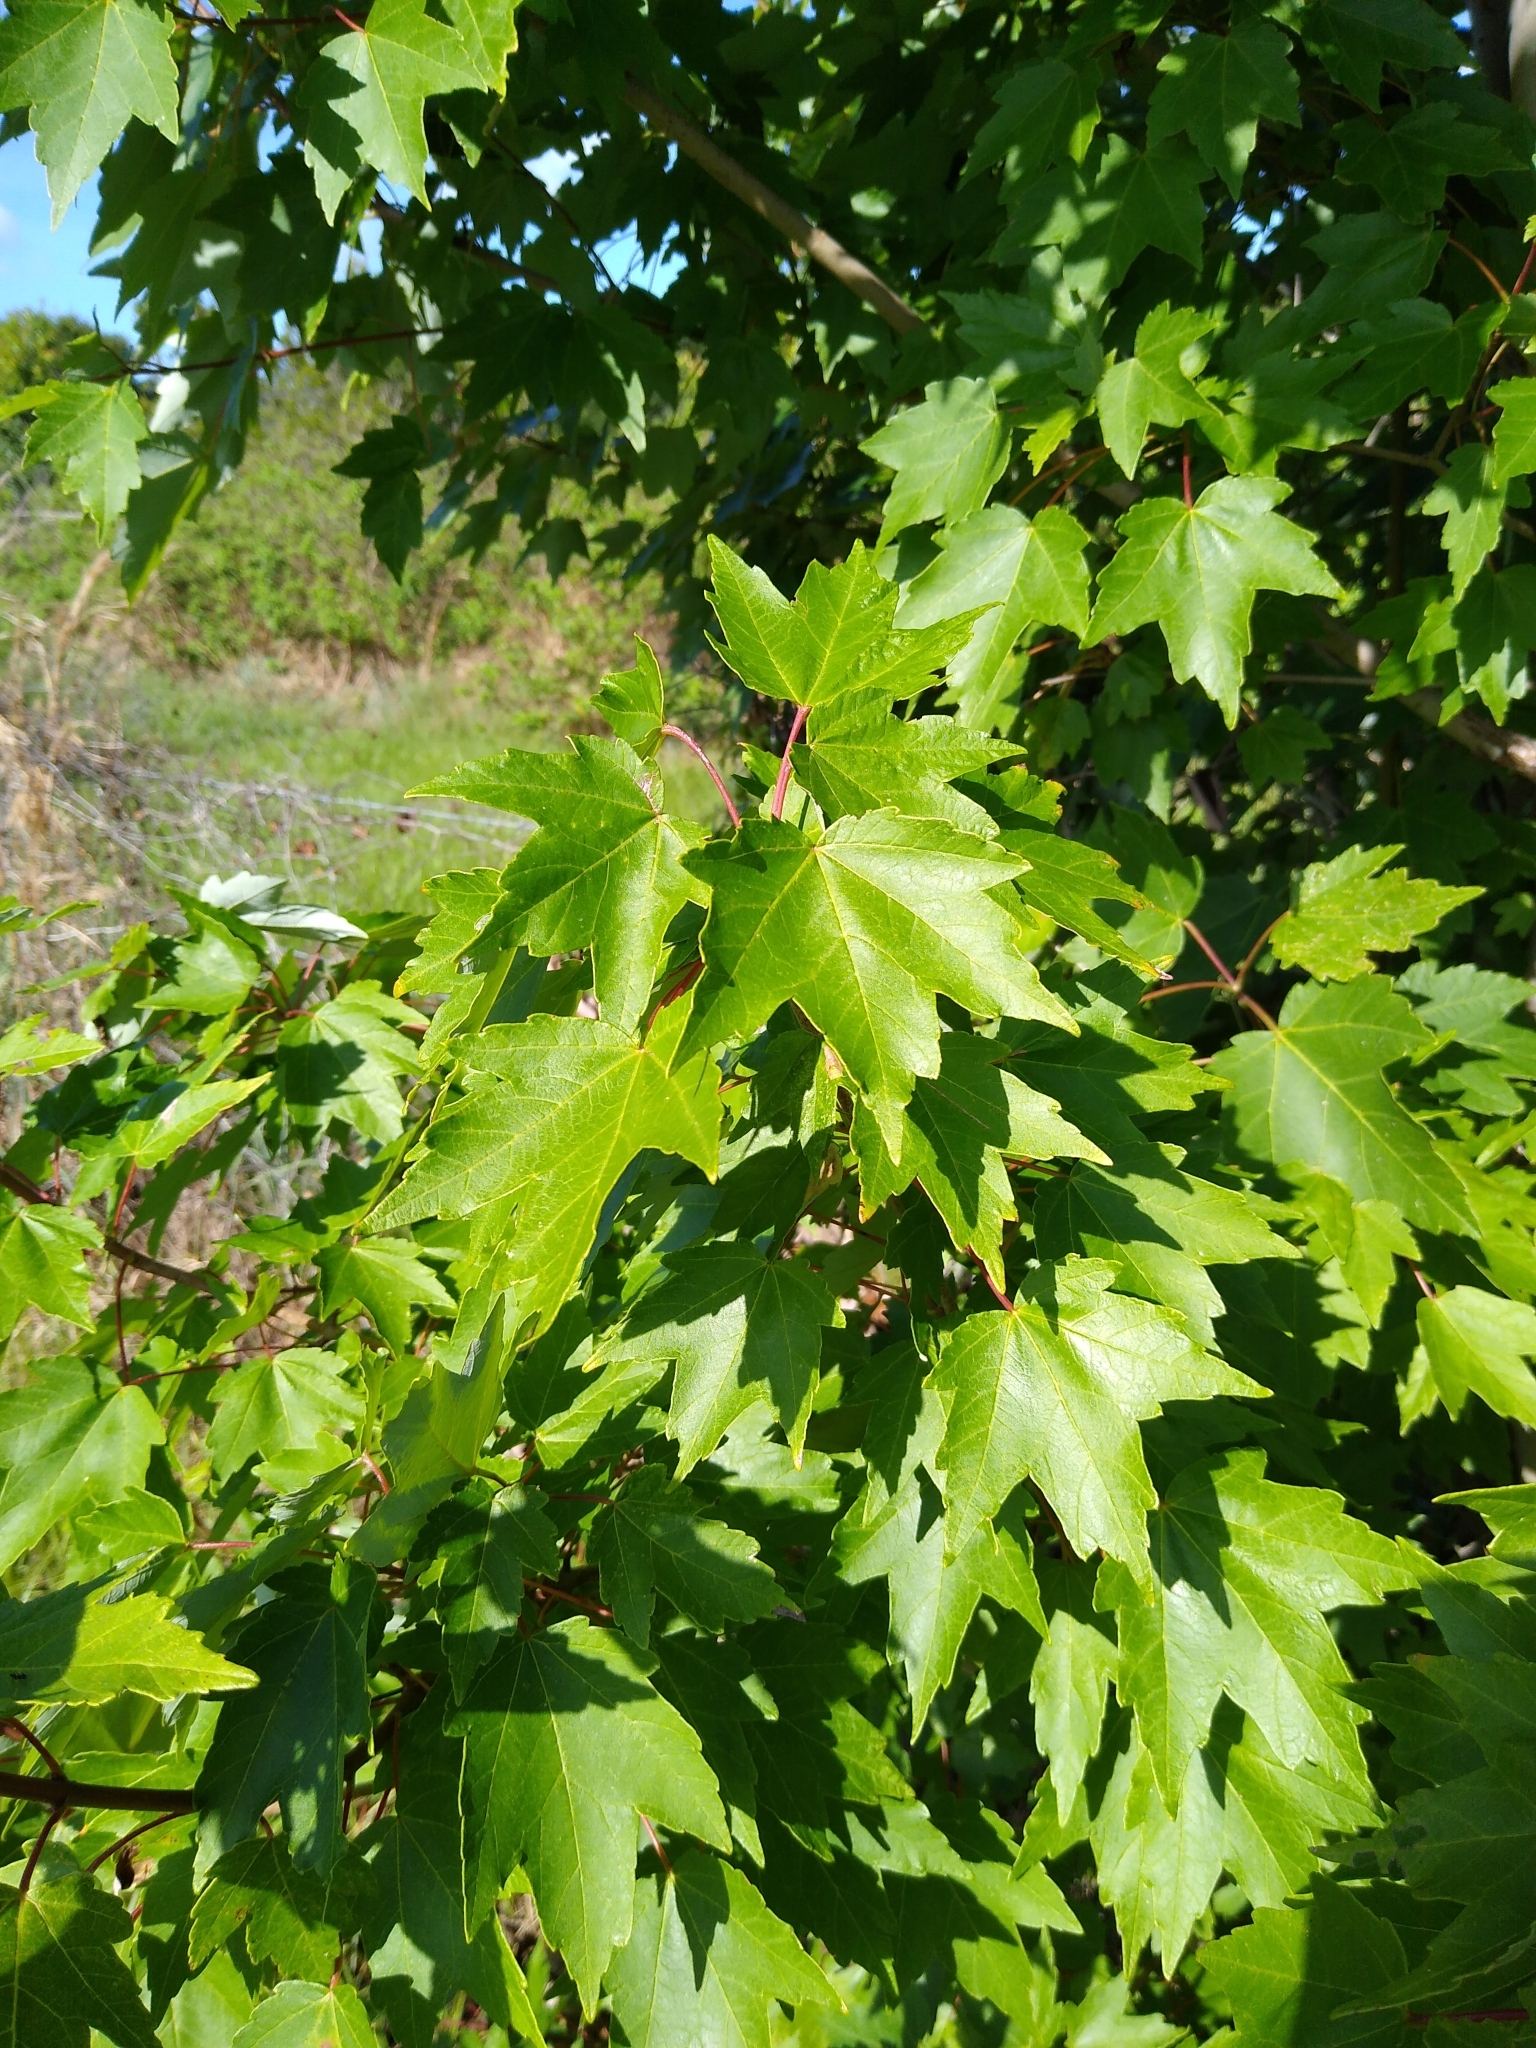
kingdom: Plantae
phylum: Tracheophyta
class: Magnoliopsida
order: Sapindales
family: Sapindaceae
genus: Acer
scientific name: Acer rubrum
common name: Red maple
